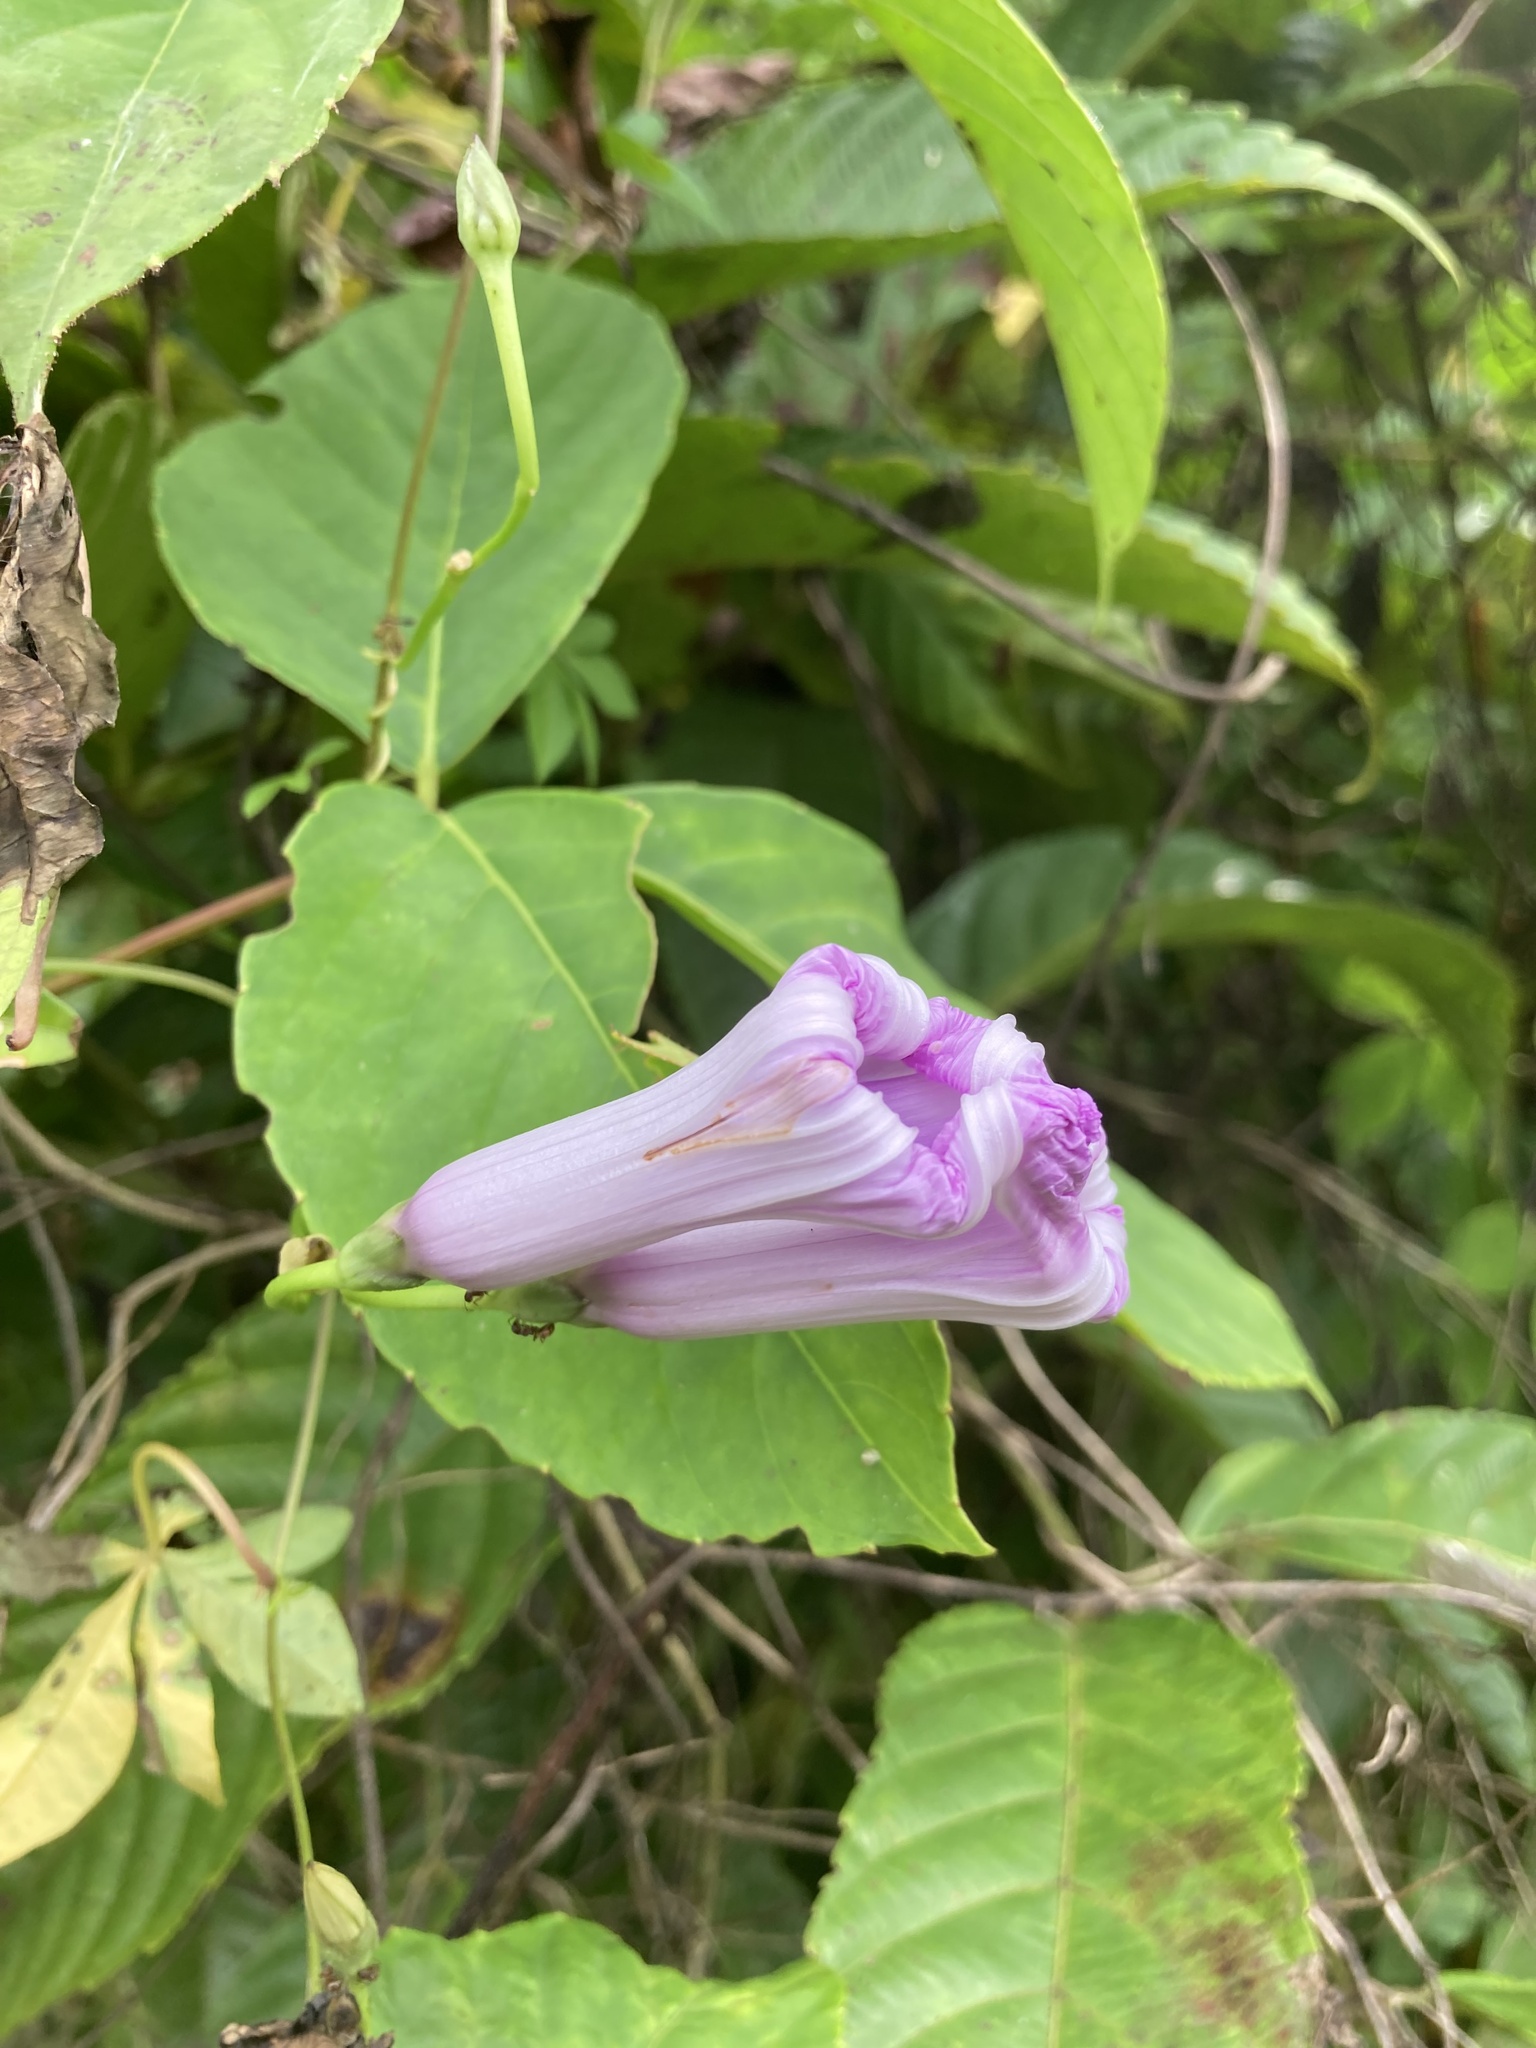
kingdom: Plantae
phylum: Tracheophyta
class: Magnoliopsida
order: Solanales
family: Convolvulaceae
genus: Ipomoea
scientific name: Ipomoea cairica
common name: Mile a minute vine
